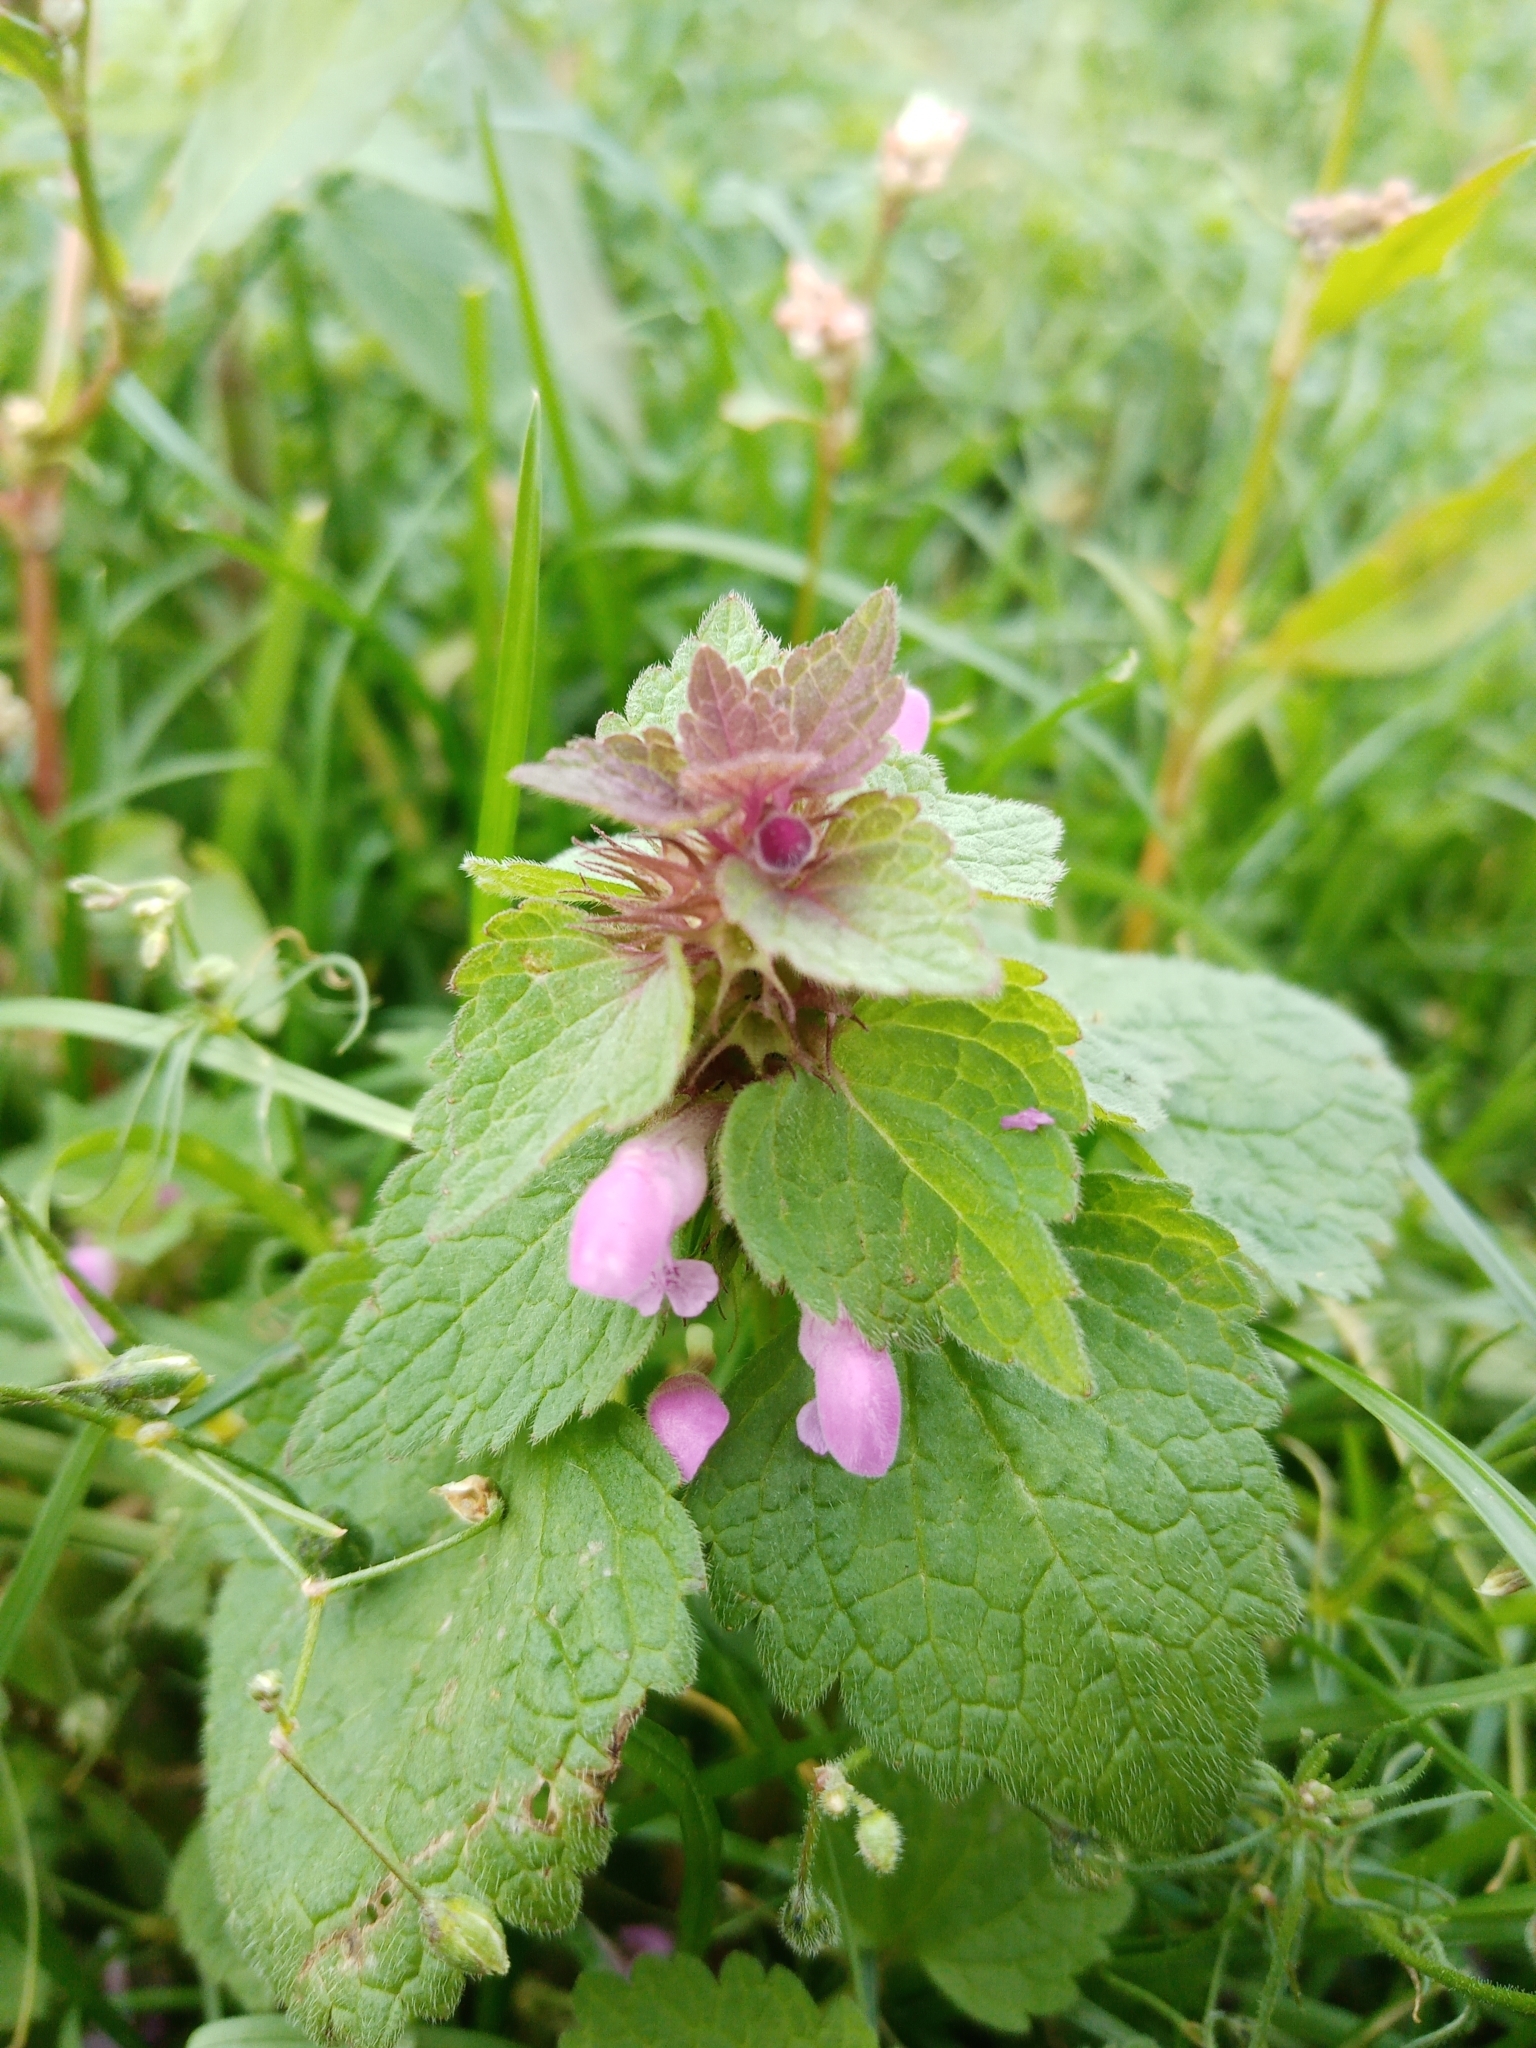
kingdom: Plantae
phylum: Tracheophyta
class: Magnoliopsida
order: Lamiales
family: Lamiaceae
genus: Lamium
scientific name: Lamium purpureum
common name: Red dead-nettle
